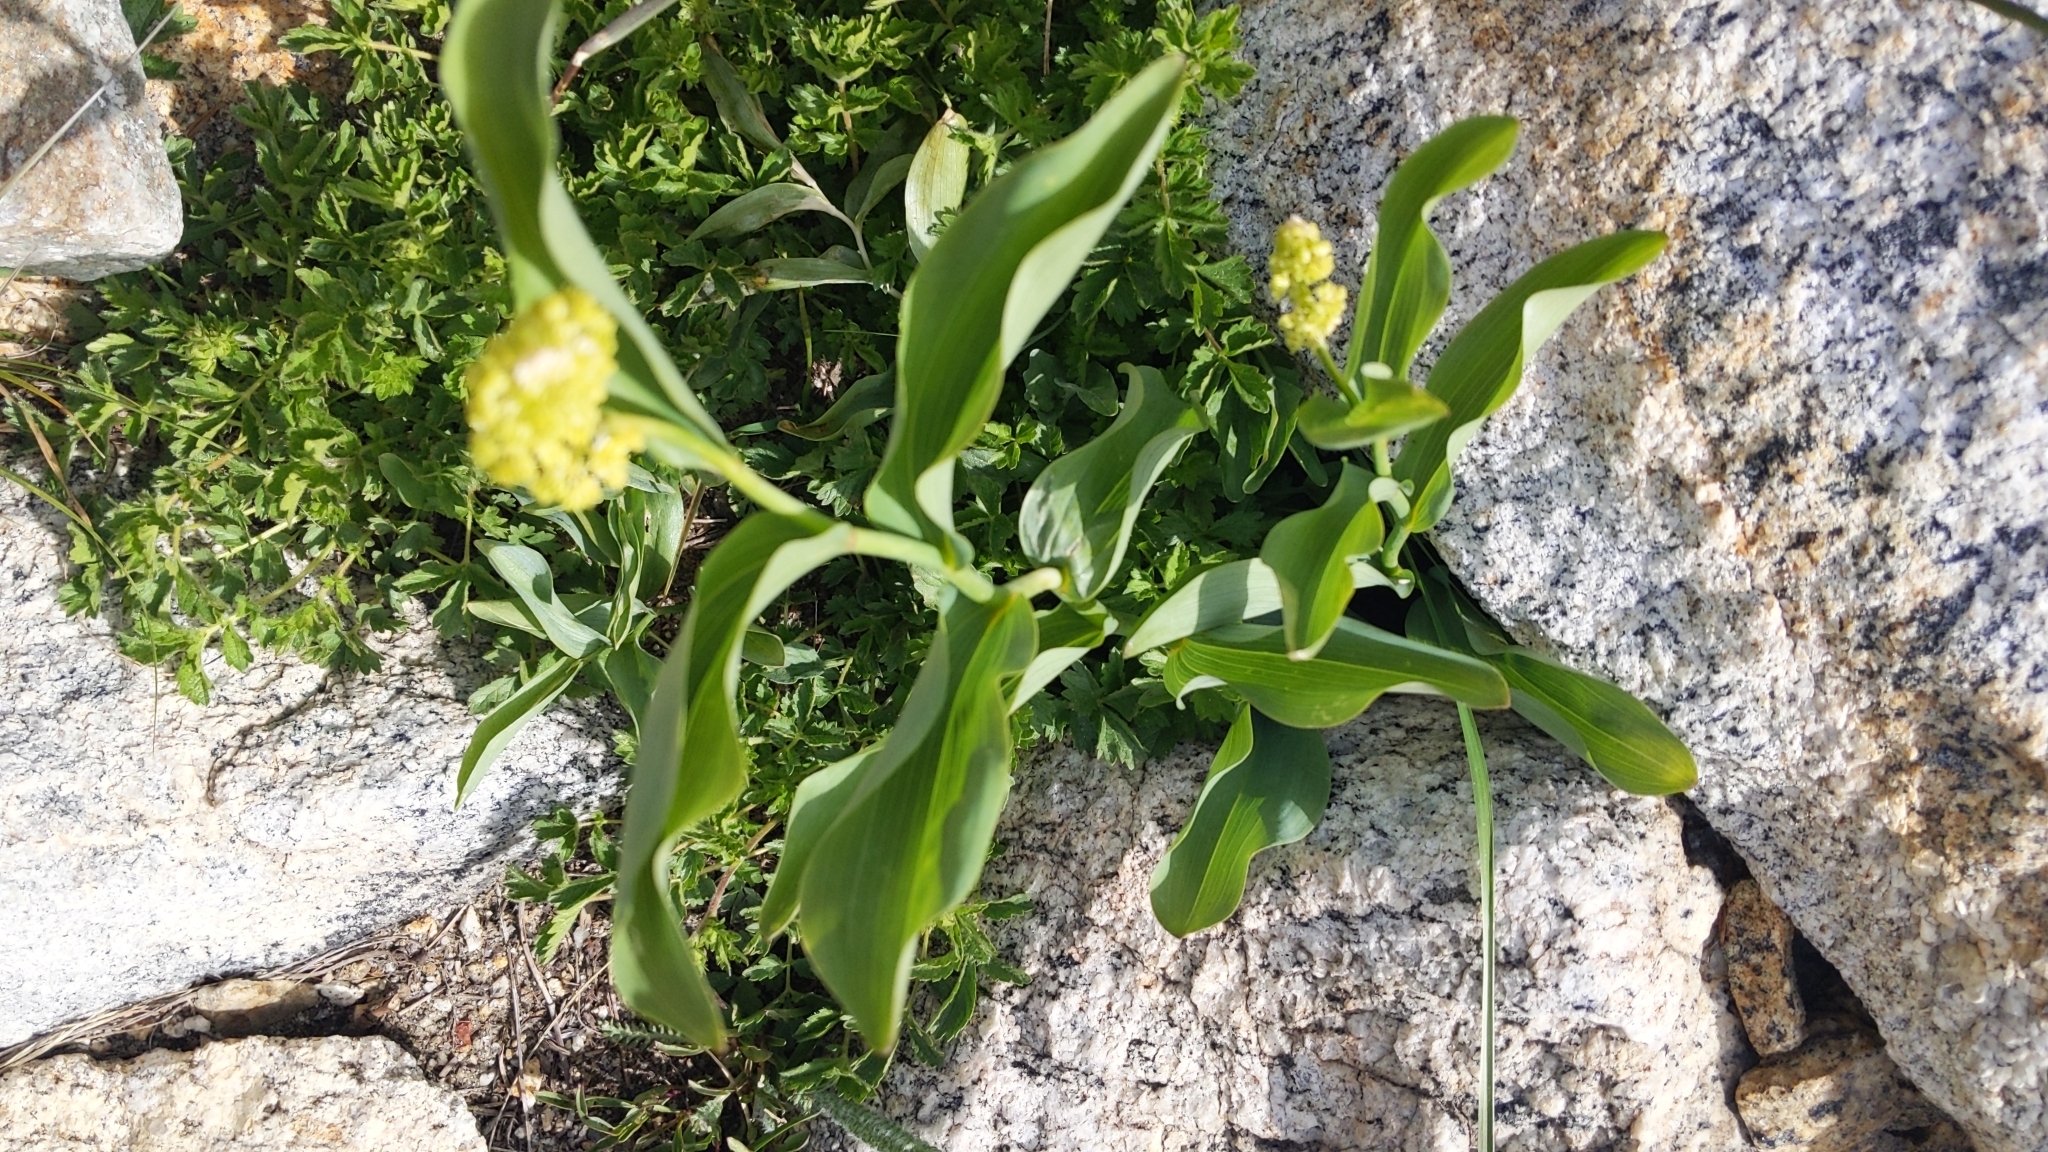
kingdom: Plantae
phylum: Tracheophyta
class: Liliopsida
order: Asparagales
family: Asparagaceae
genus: Maianthemum
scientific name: Maianthemum racemosum
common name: False spikenard
